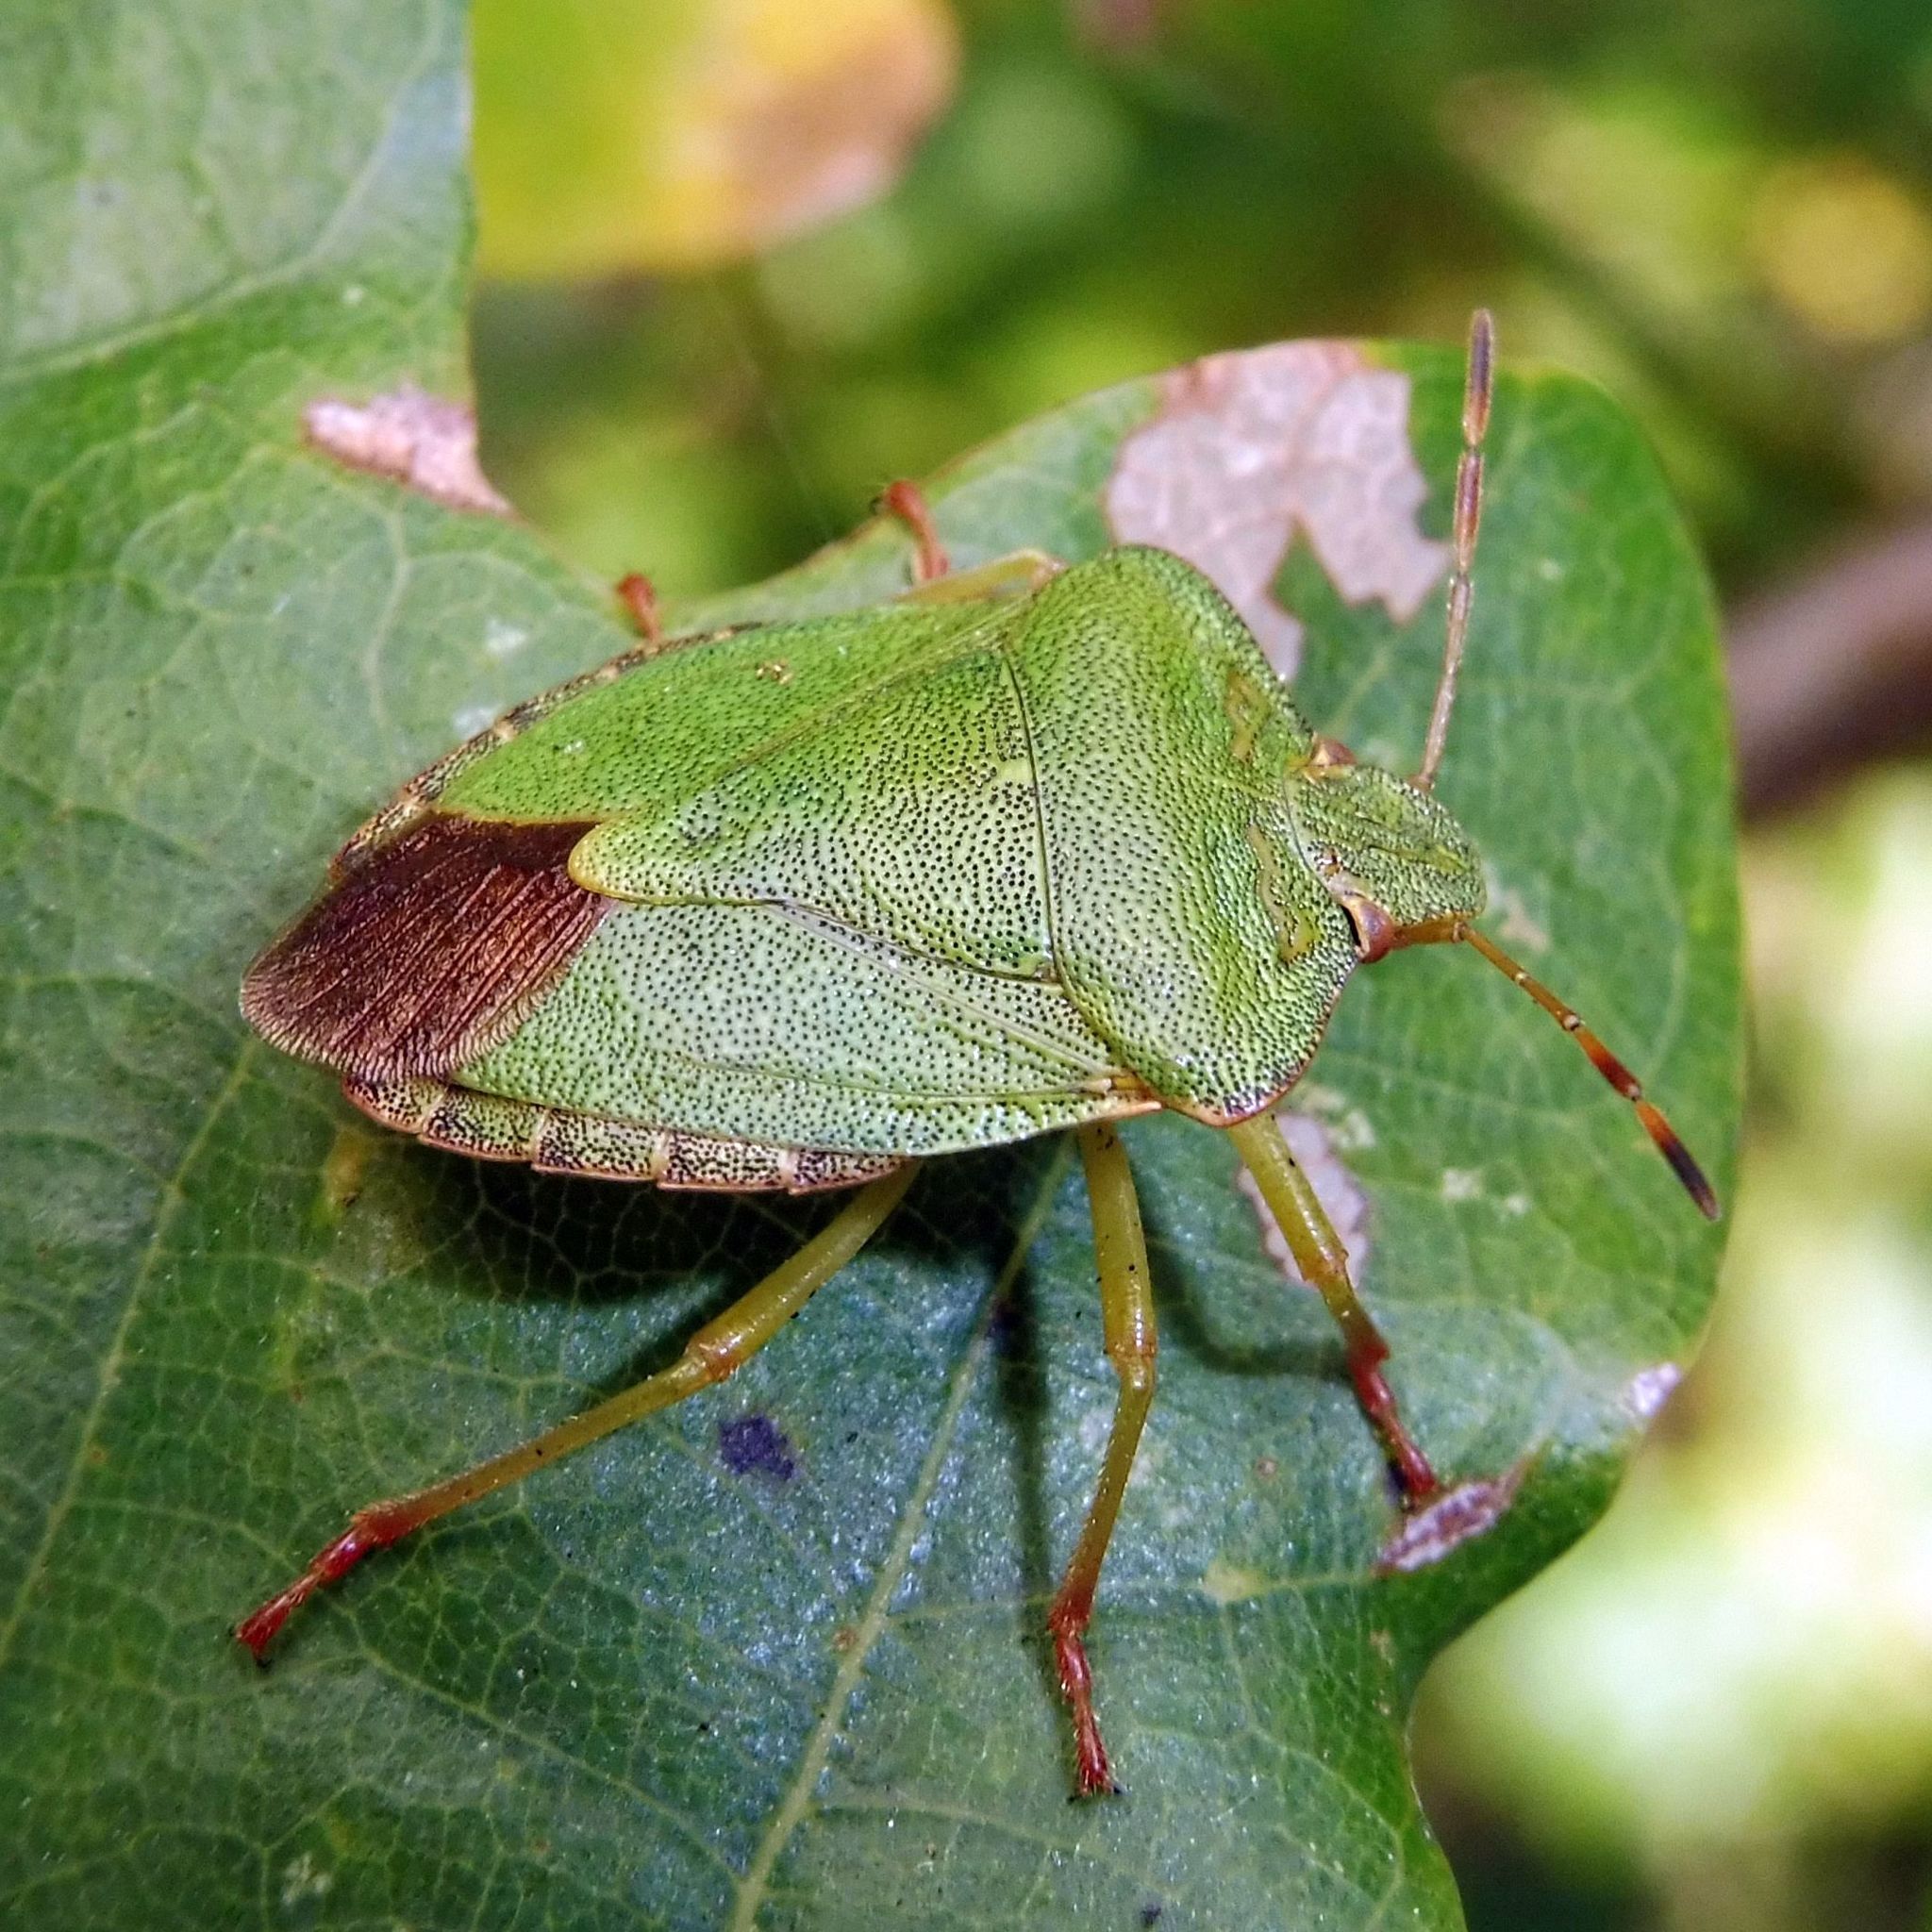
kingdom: Animalia
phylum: Arthropoda
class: Insecta
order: Hemiptera
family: Pentatomidae
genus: Palomena
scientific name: Palomena prasina
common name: Green shieldbug
